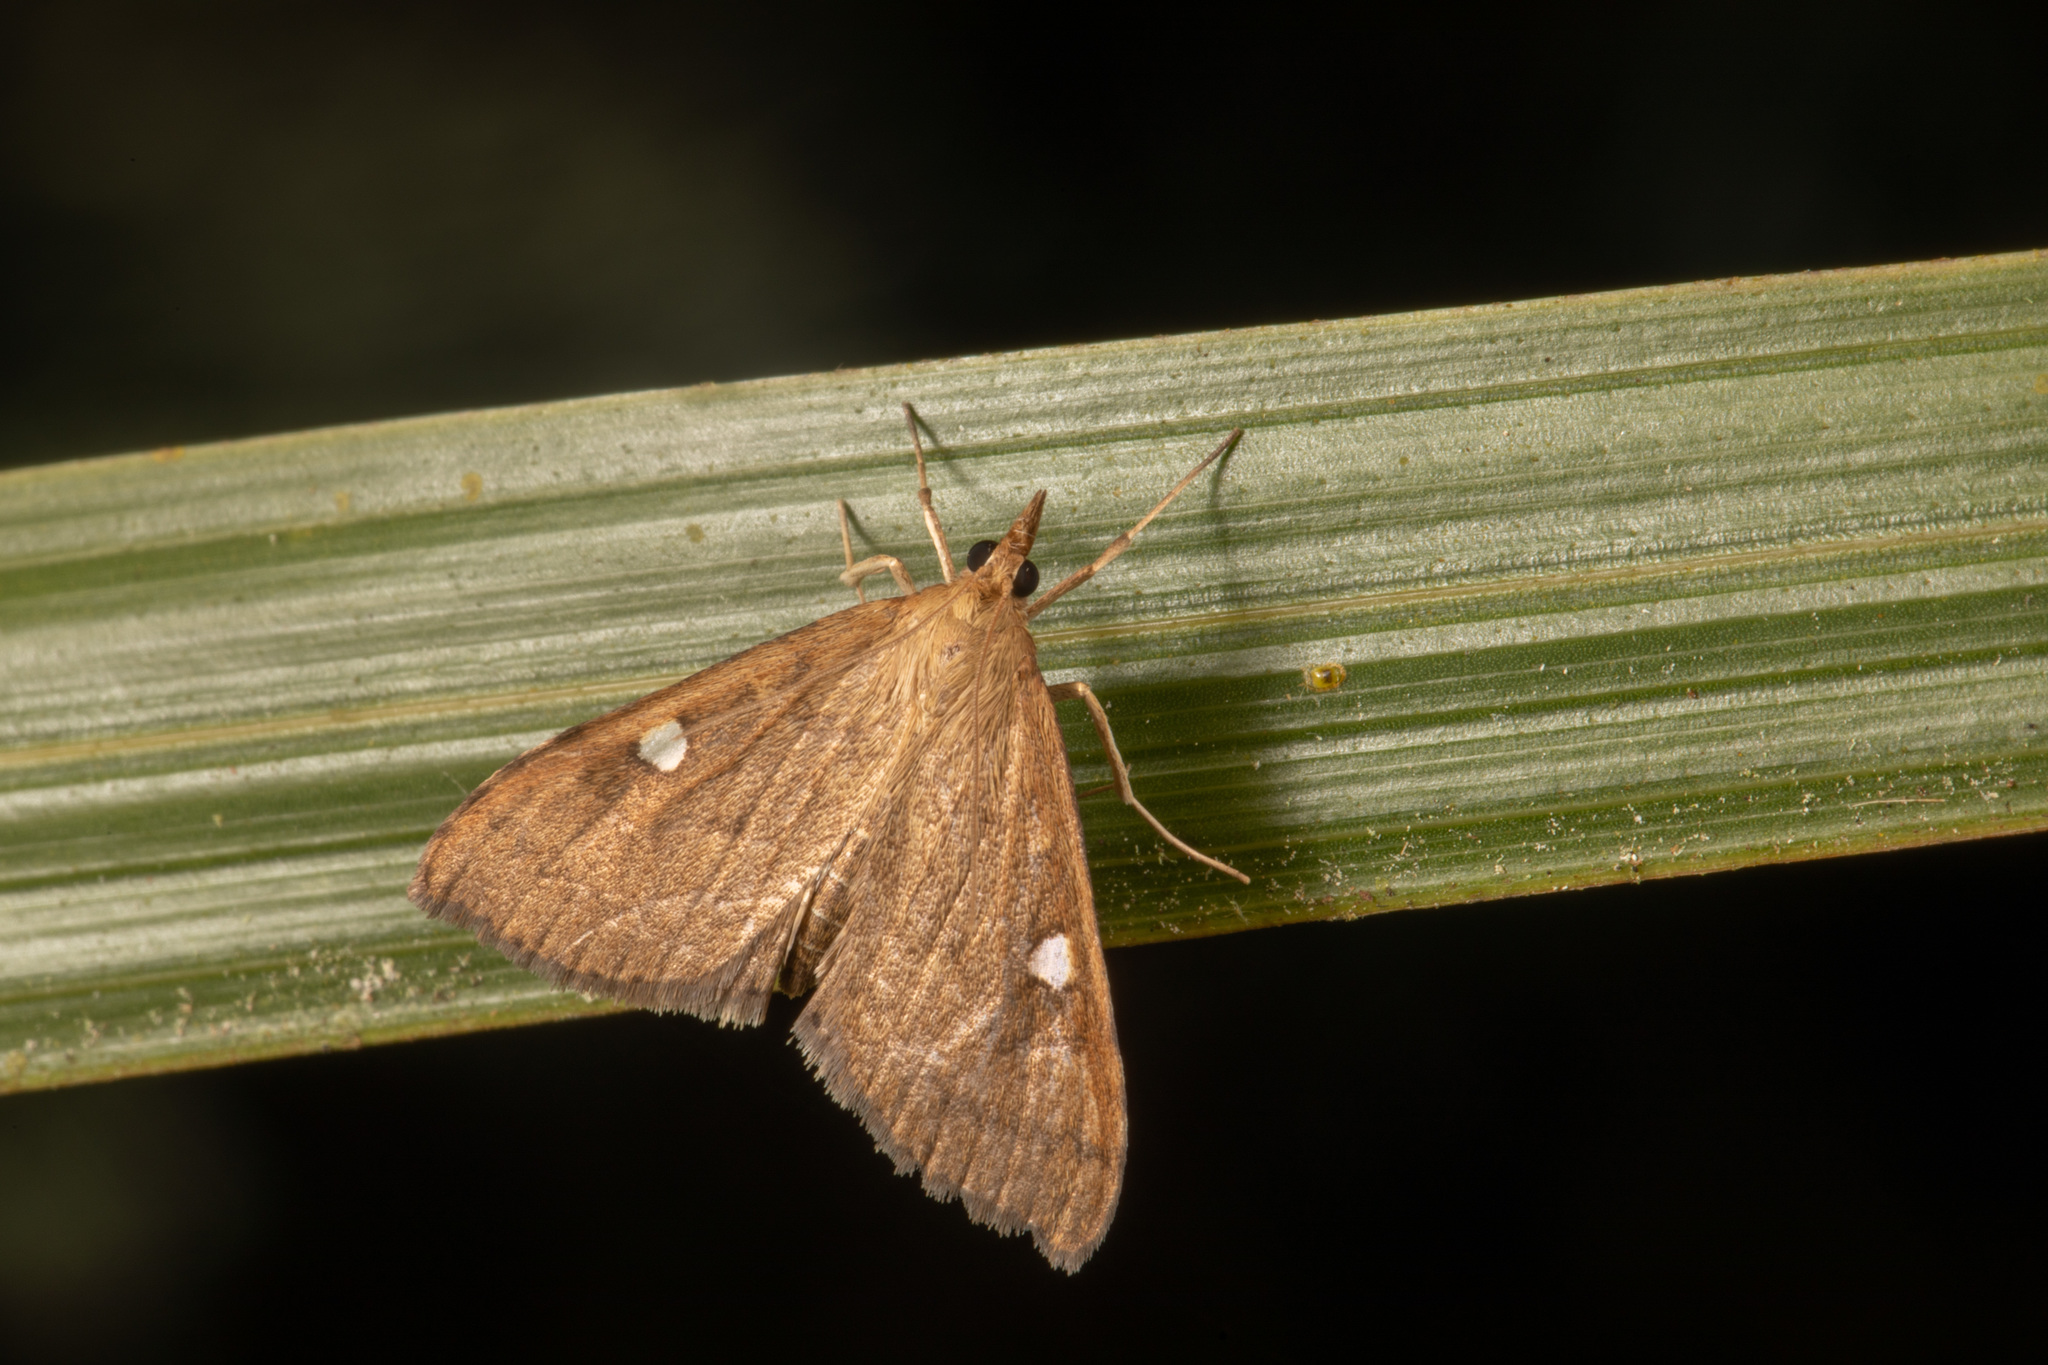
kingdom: Animalia
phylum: Arthropoda
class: Insecta
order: Lepidoptera
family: Crambidae
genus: Udea
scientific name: Udea Mnesictena marmarina
